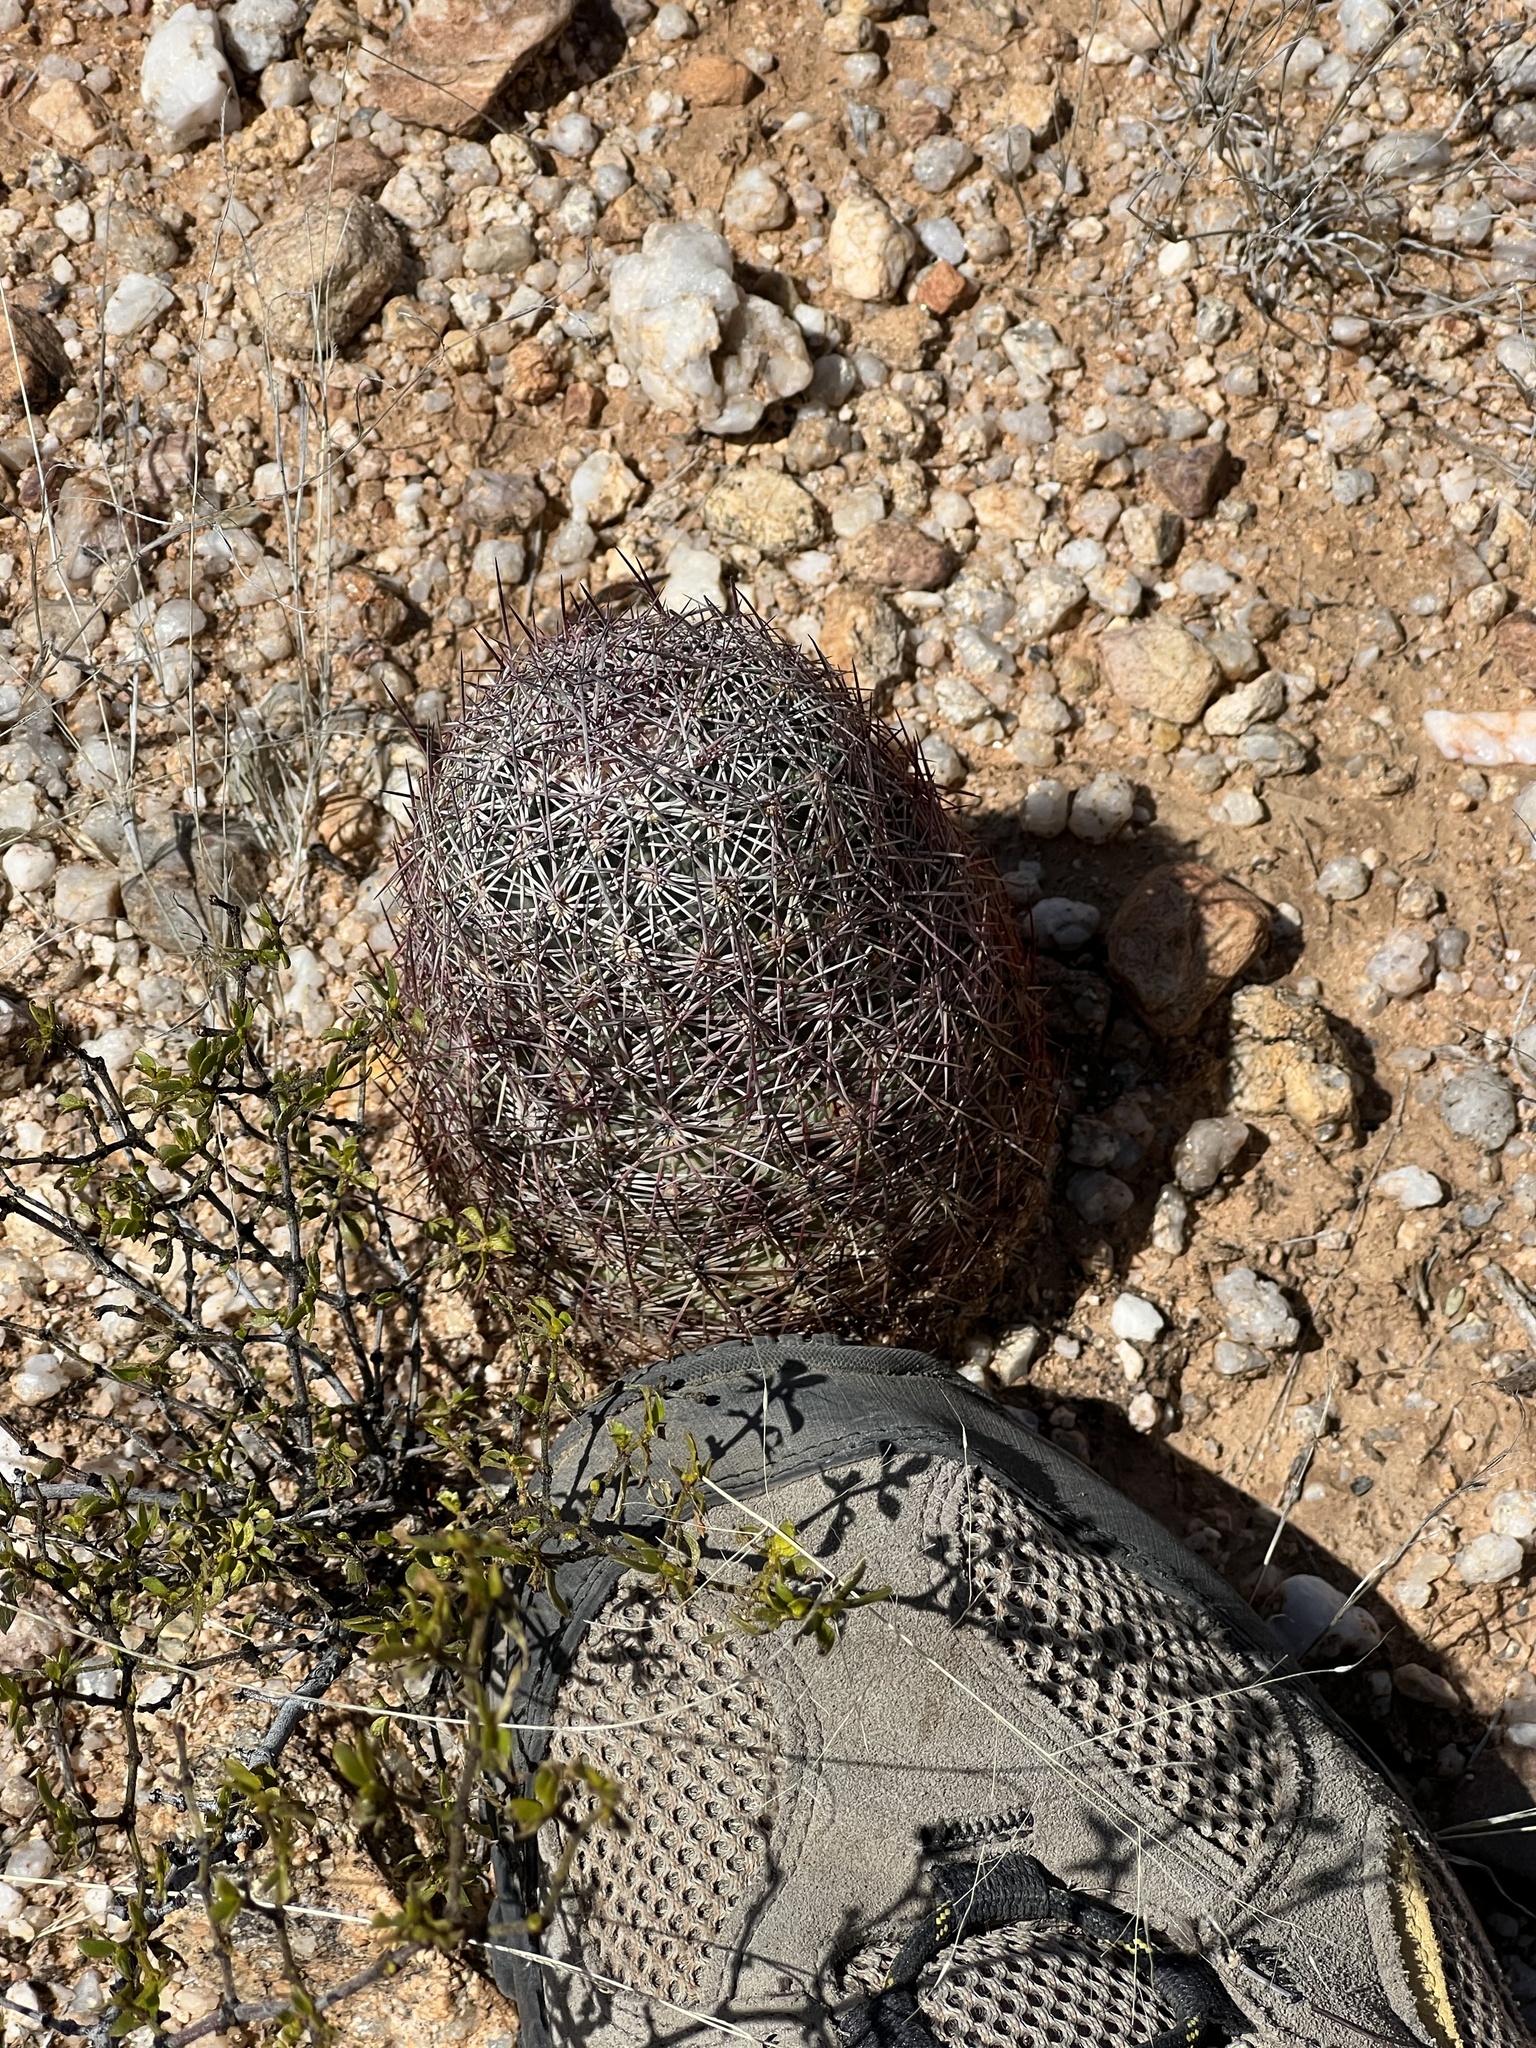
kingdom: Plantae
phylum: Tracheophyta
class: Magnoliopsida
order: Caryophyllales
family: Cactaceae
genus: Sclerocactus
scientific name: Sclerocactus johnsonii
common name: Eight-spine fishhook cactus
